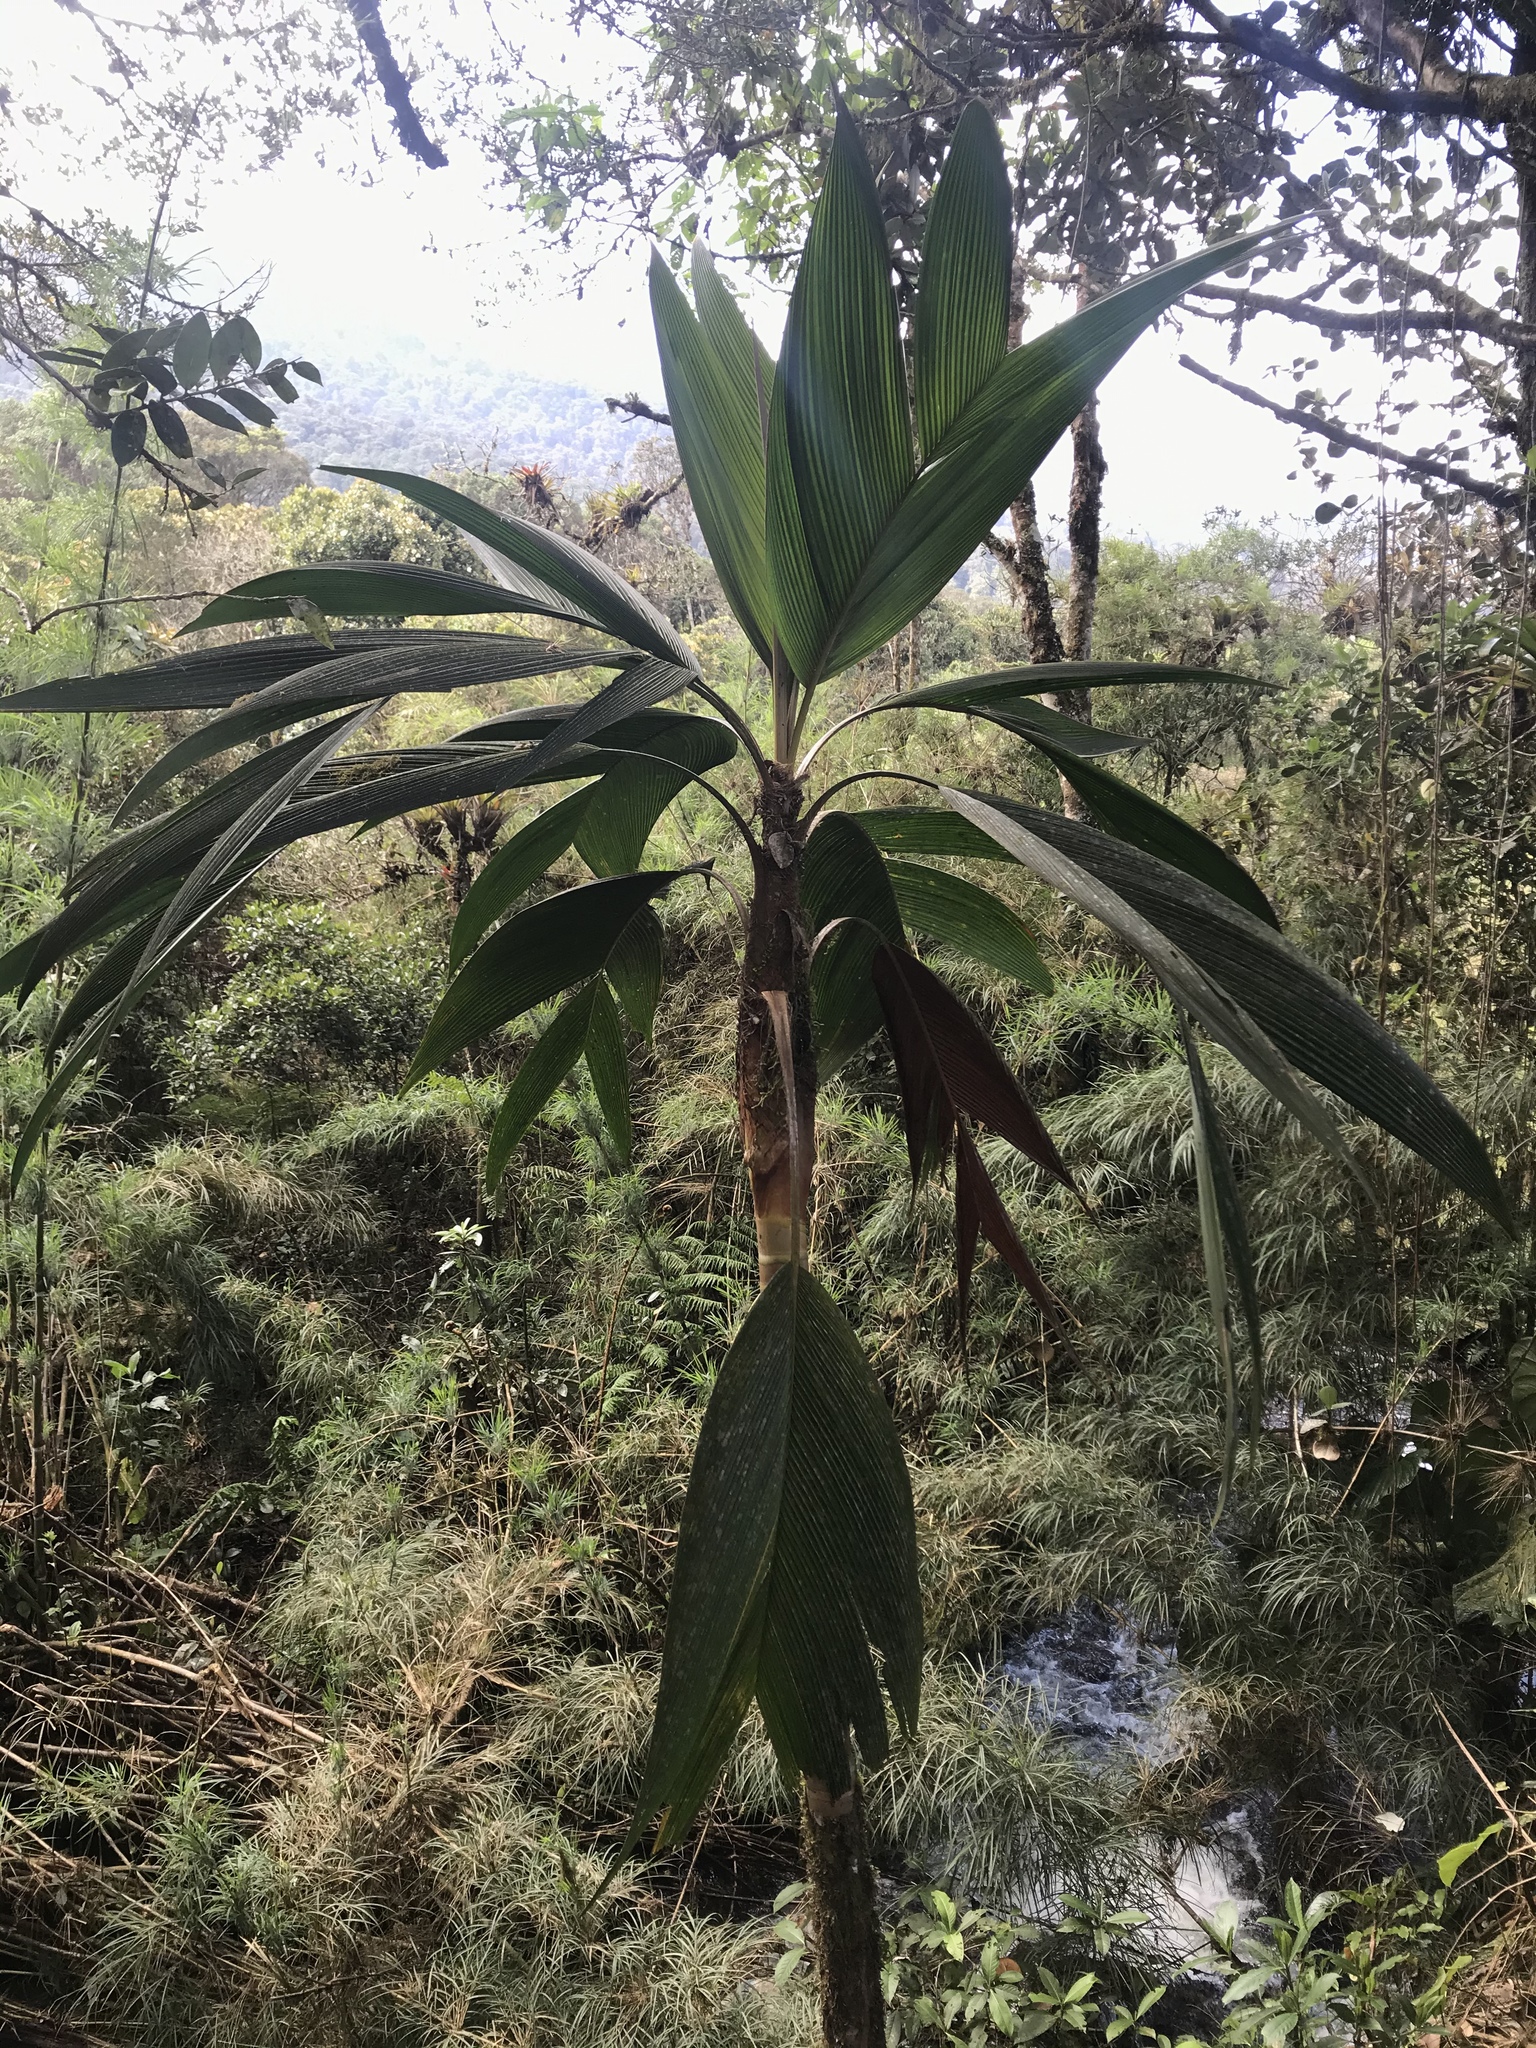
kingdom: Plantae
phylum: Tracheophyta
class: Liliopsida
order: Arecales
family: Arecaceae
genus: Geonoma
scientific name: Geonoma undata
